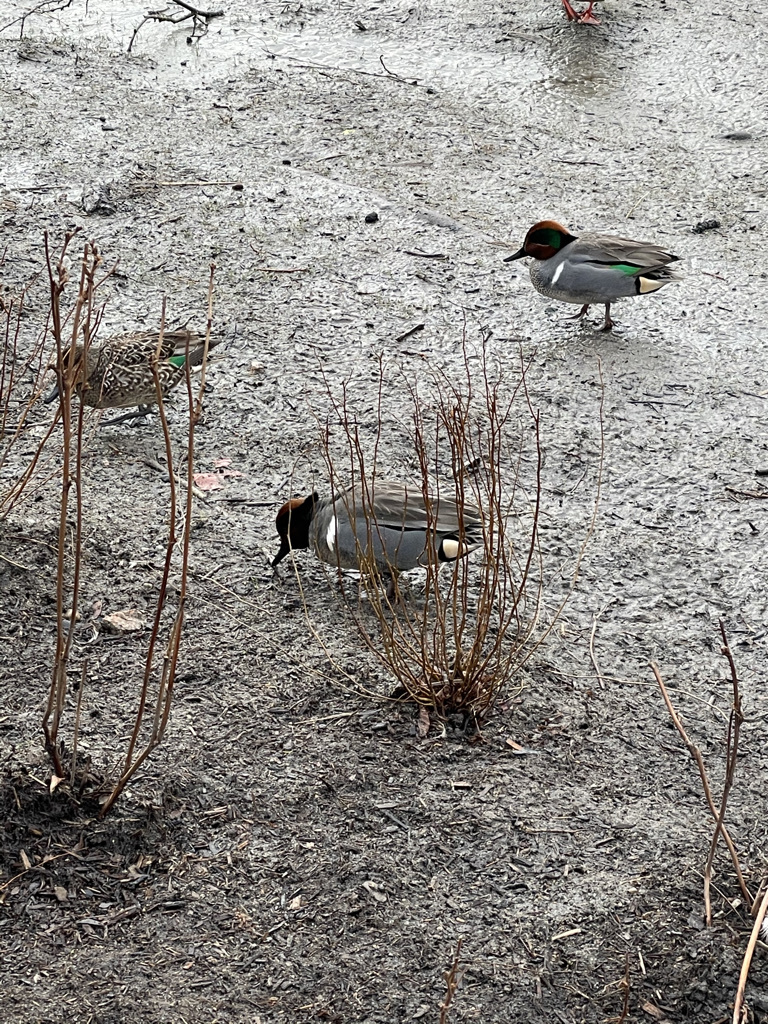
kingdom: Animalia
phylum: Chordata
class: Aves
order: Anseriformes
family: Anatidae
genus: Anas
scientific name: Anas crecca
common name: Eurasian teal
